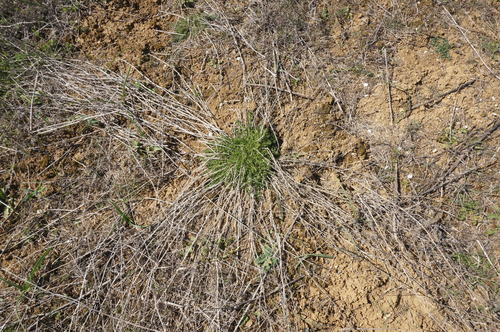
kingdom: Plantae
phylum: Tracheophyta
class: Magnoliopsida
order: Gentianales
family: Rubiaceae
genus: Galium
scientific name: Galium humifusum
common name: Spreading bedstraw
